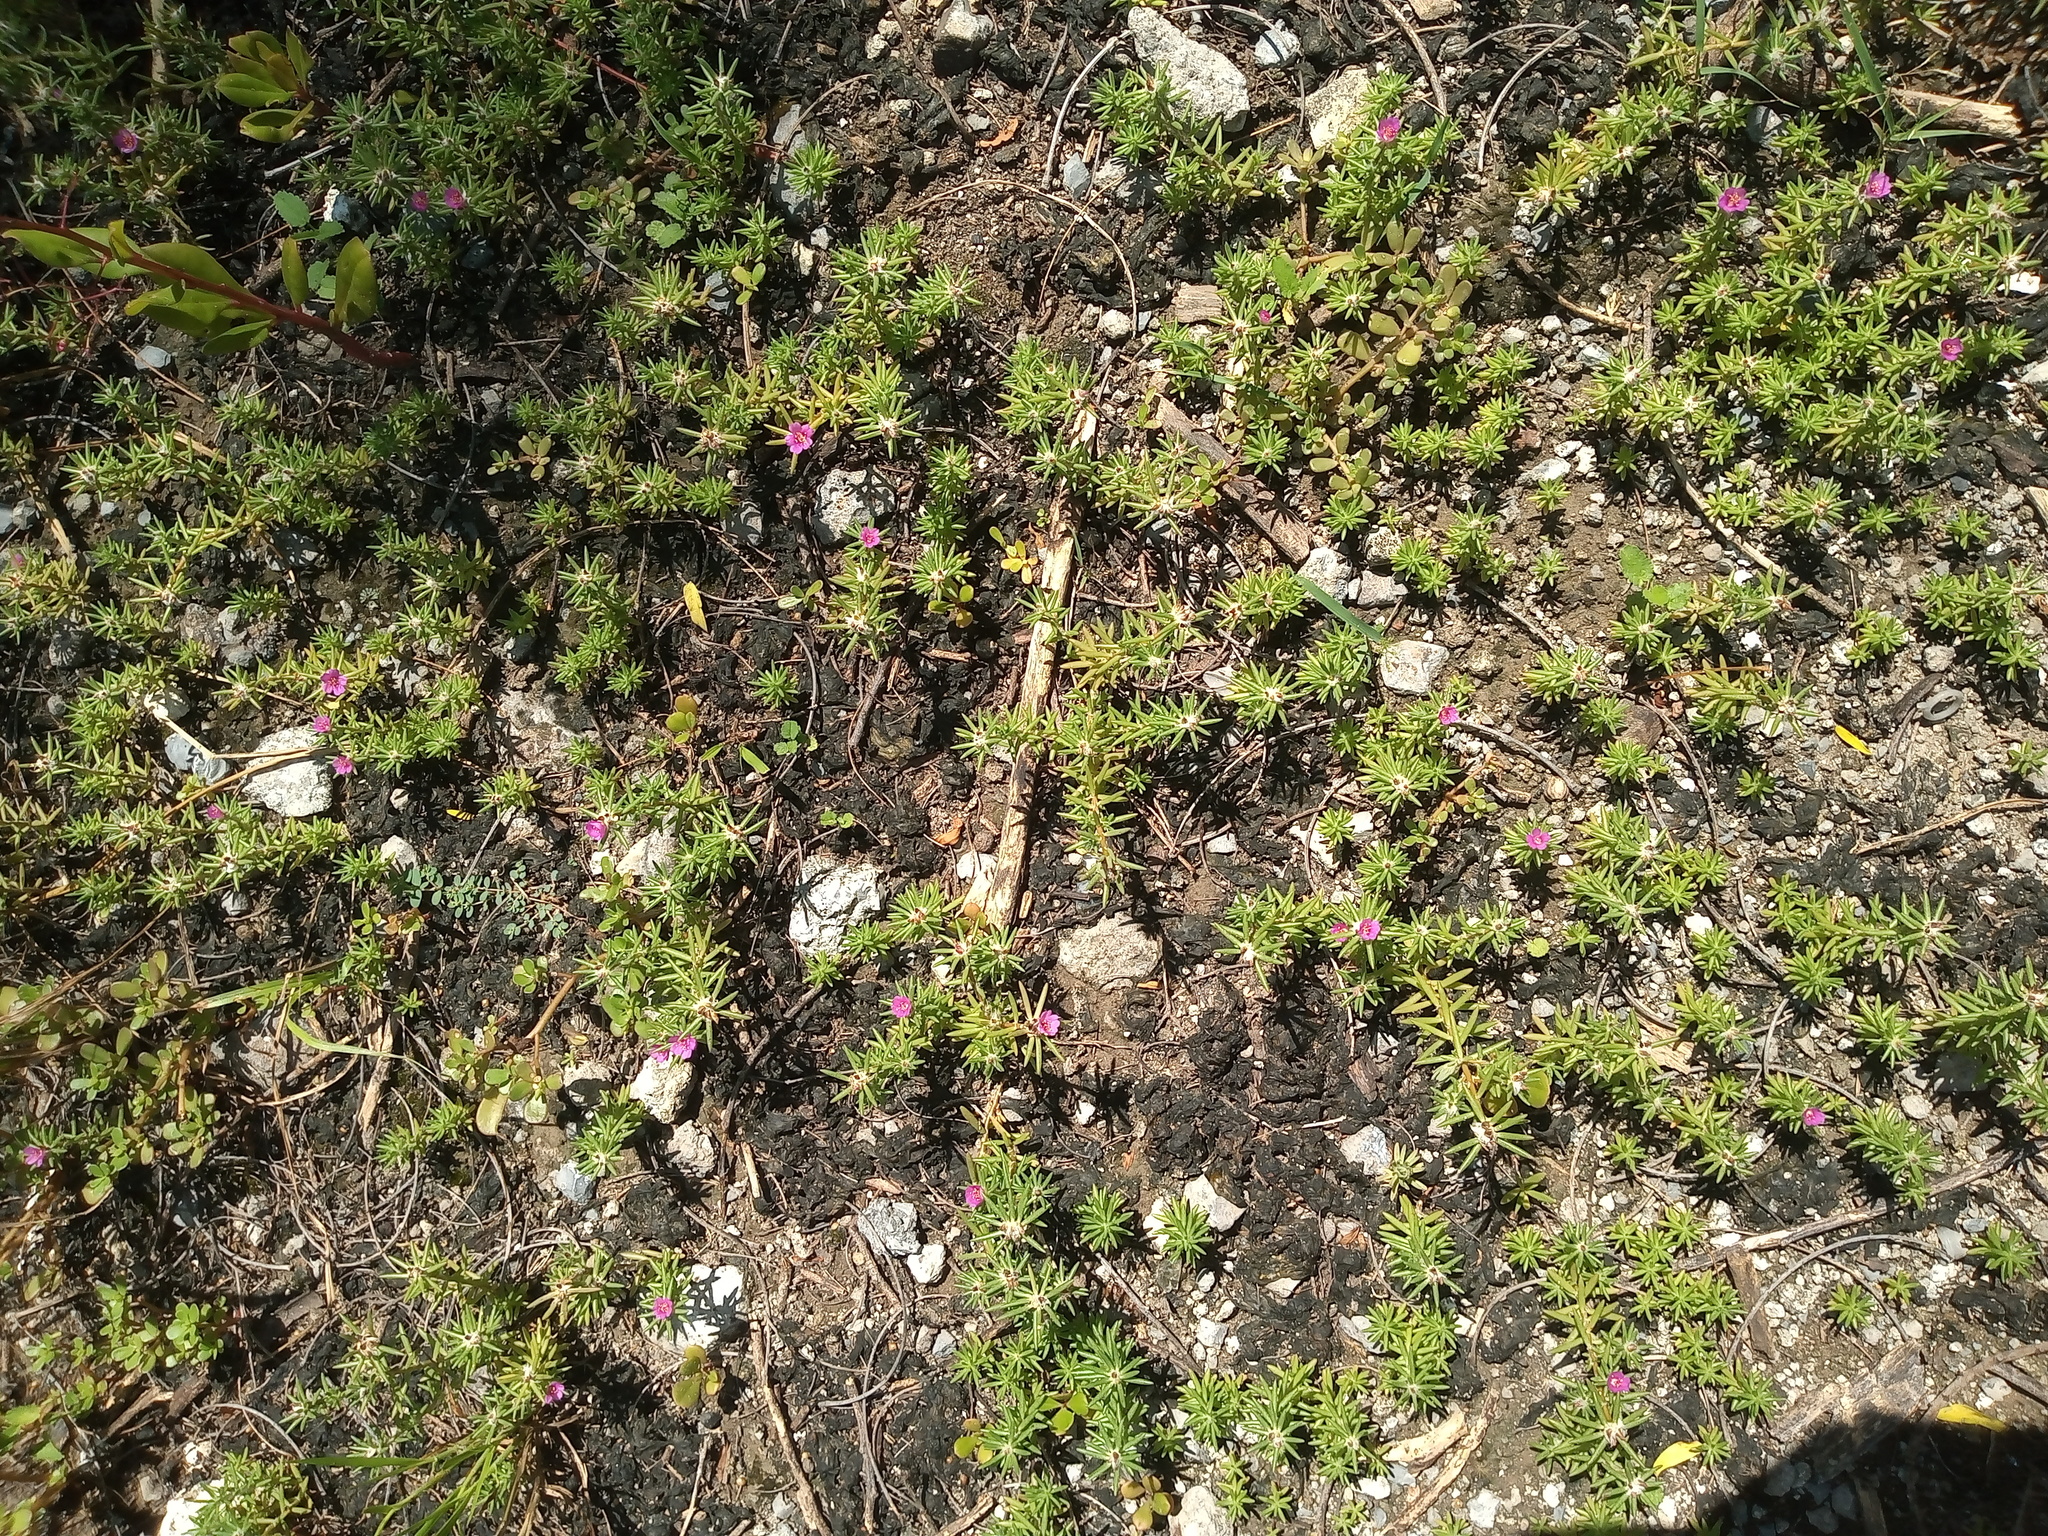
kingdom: Plantae
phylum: Tracheophyta
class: Magnoliopsida
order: Caryophyllales
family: Portulacaceae
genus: Portulaca
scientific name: Portulaca pilosa
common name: Kiss me quick
